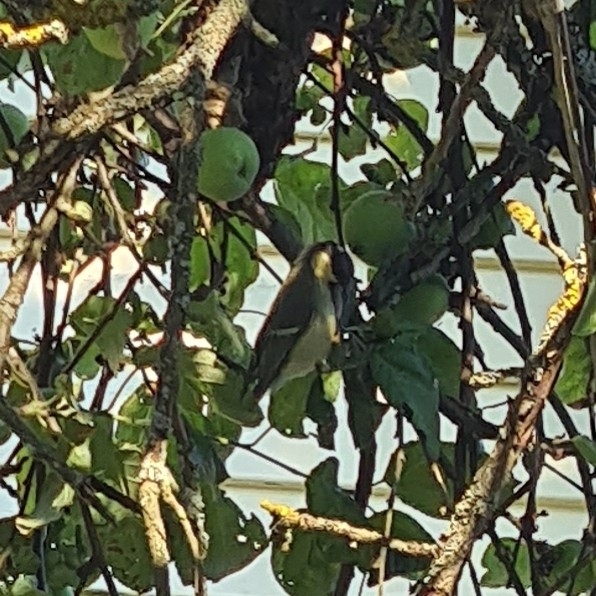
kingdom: Animalia
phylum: Chordata
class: Aves
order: Passeriformes
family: Paridae
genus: Parus
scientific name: Parus major
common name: Great tit
